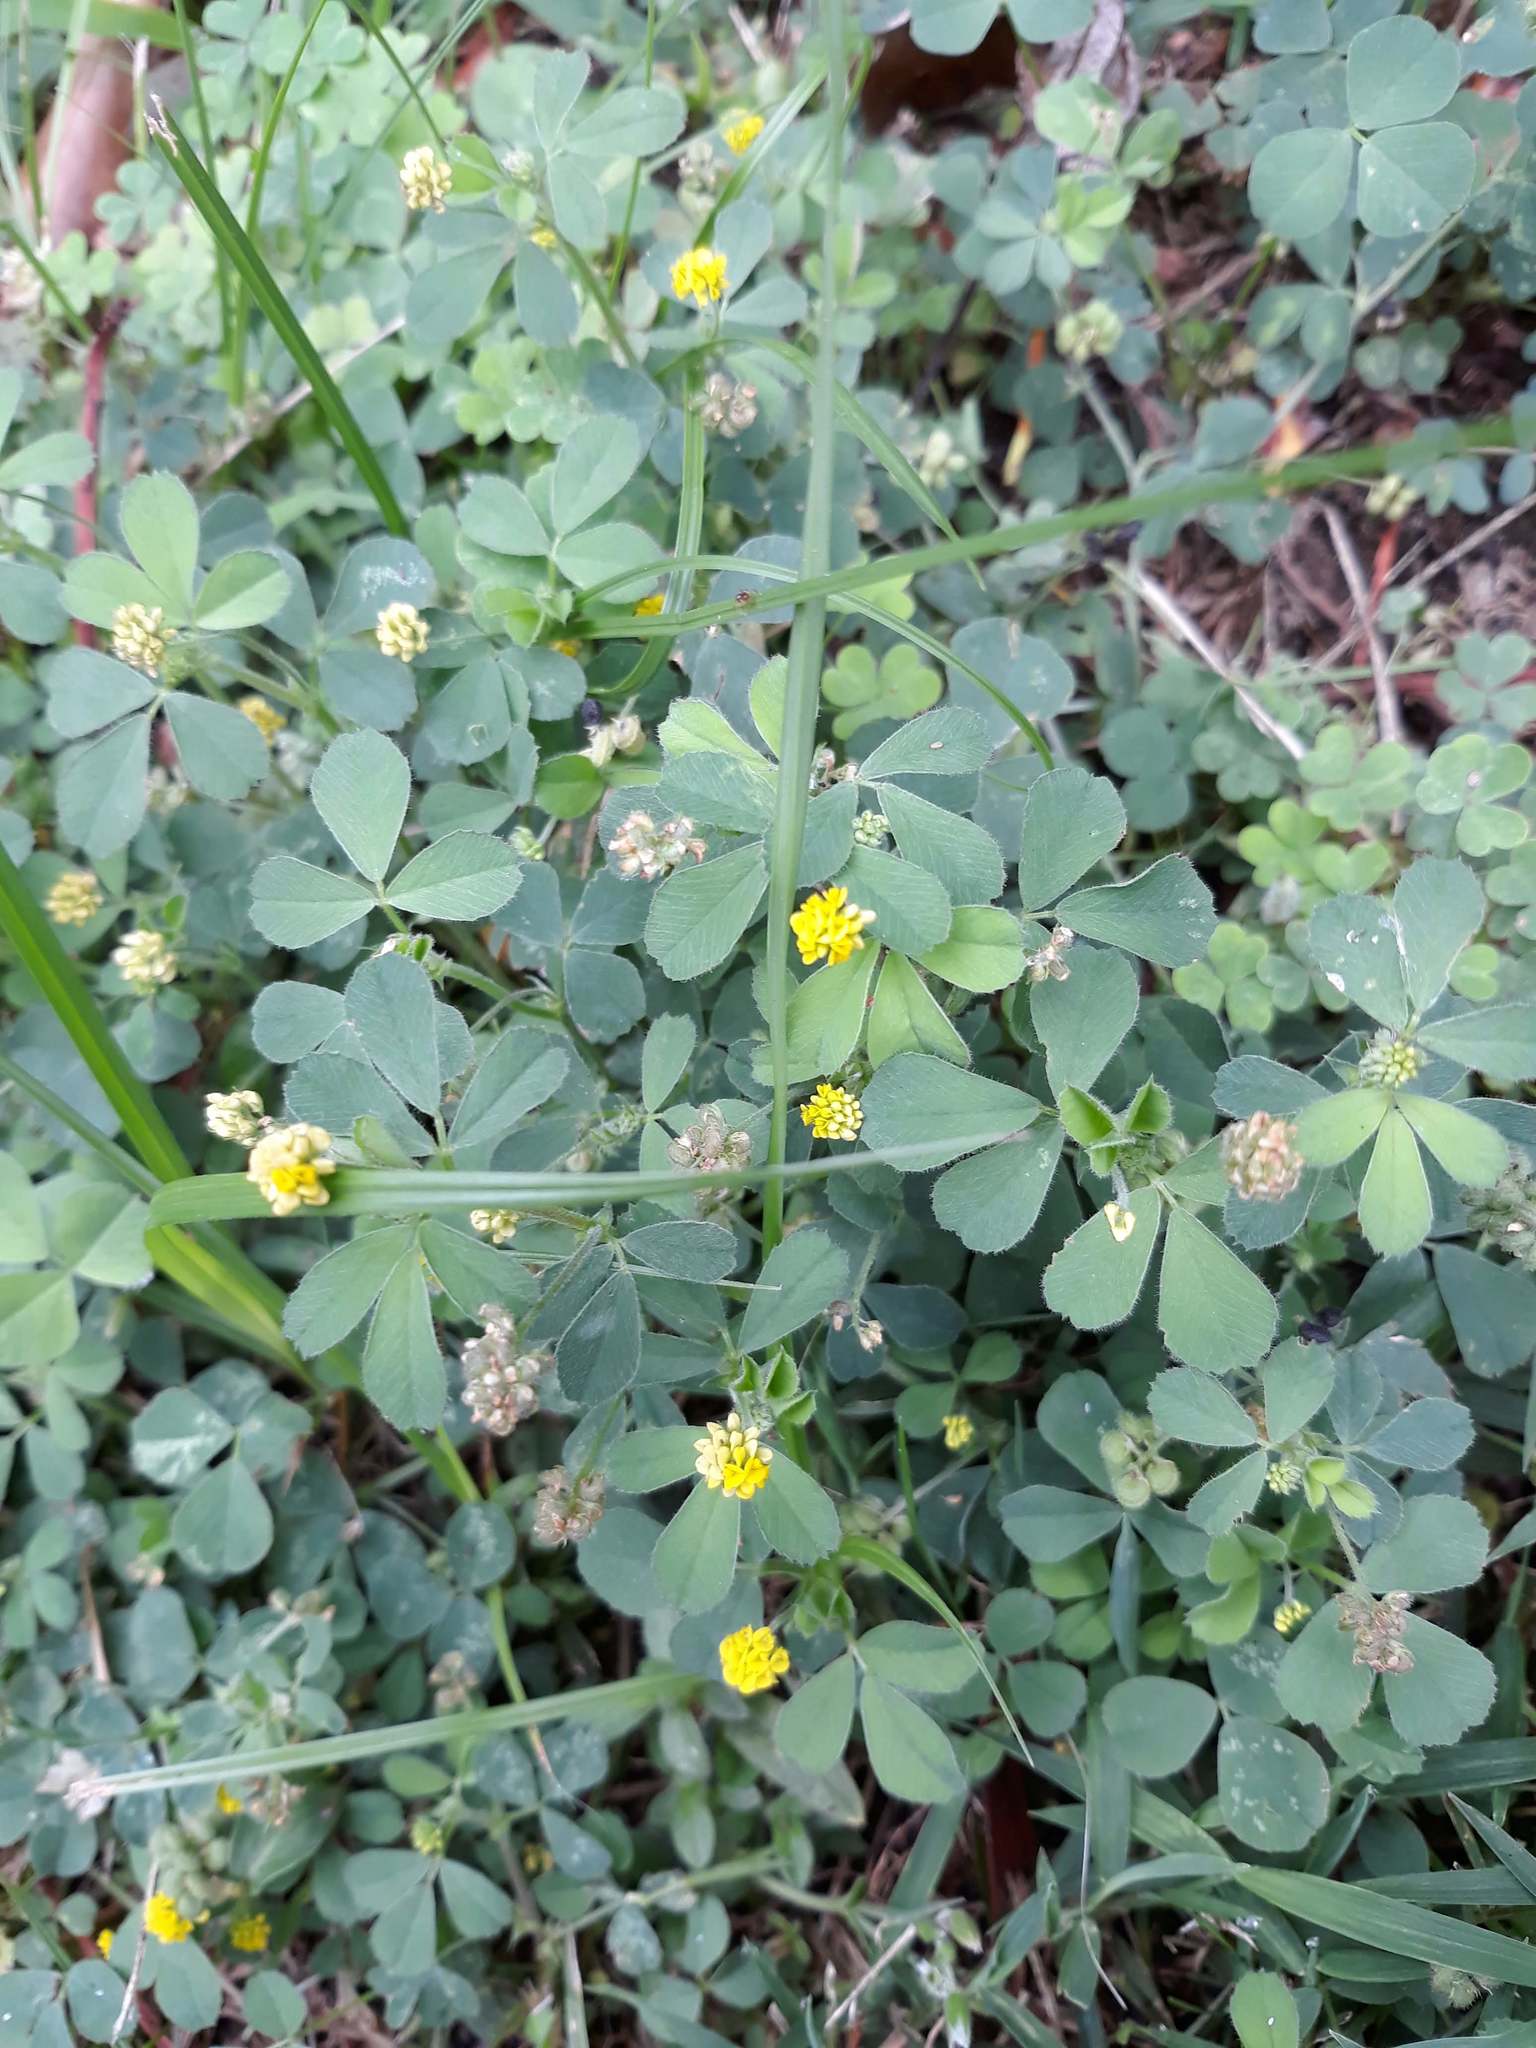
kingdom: Plantae
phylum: Tracheophyta
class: Magnoliopsida
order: Fabales
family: Fabaceae
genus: Medicago
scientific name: Medicago lupulina
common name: Black medick
